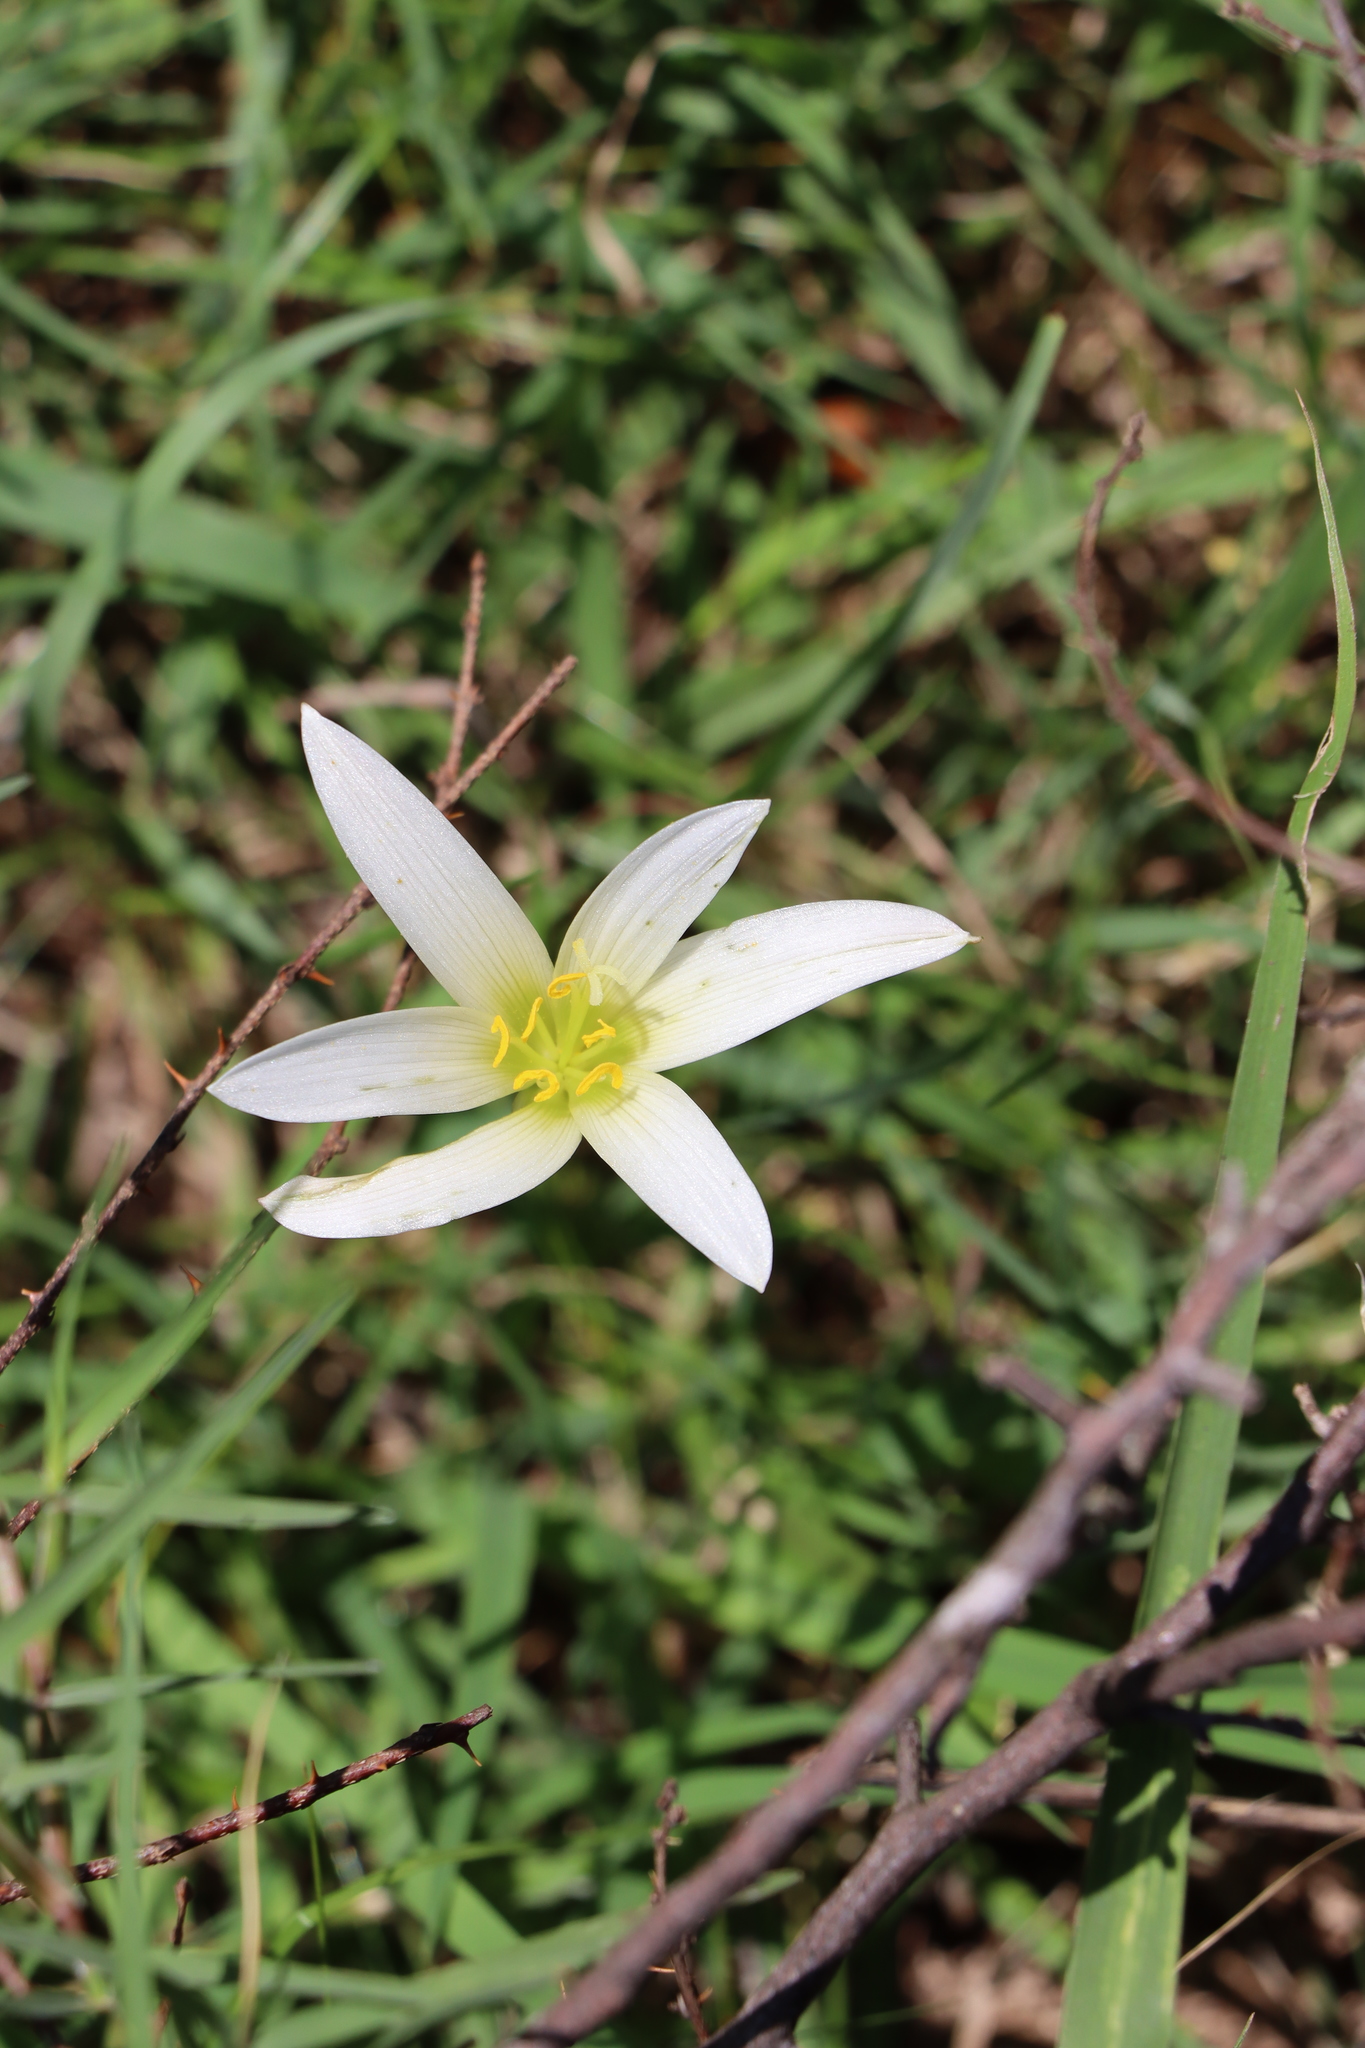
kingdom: Plantae
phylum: Tracheophyta
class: Liliopsida
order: Asparagales
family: Amaryllidaceae
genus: Zephyranthes
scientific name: Zephyranthes mesochloa
